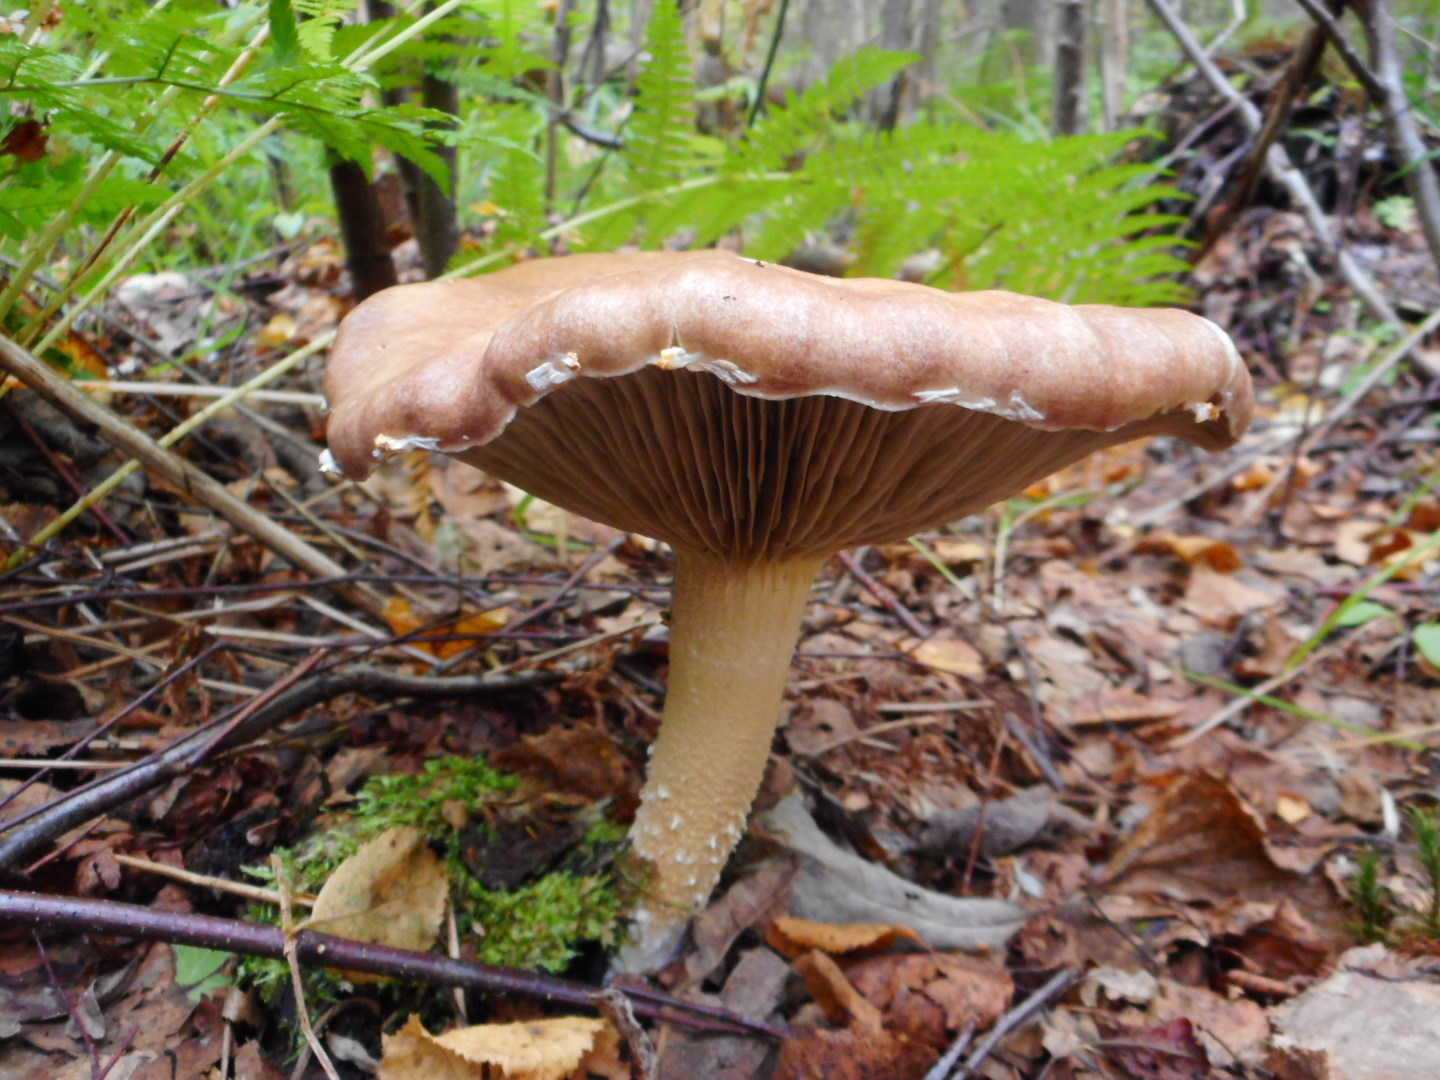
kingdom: Fungi
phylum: Basidiomycota
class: Agaricomycetes
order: Agaricales
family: Strophariaceae
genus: Stropharia
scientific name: Stropharia hornemannii
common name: Conifer roundhead
